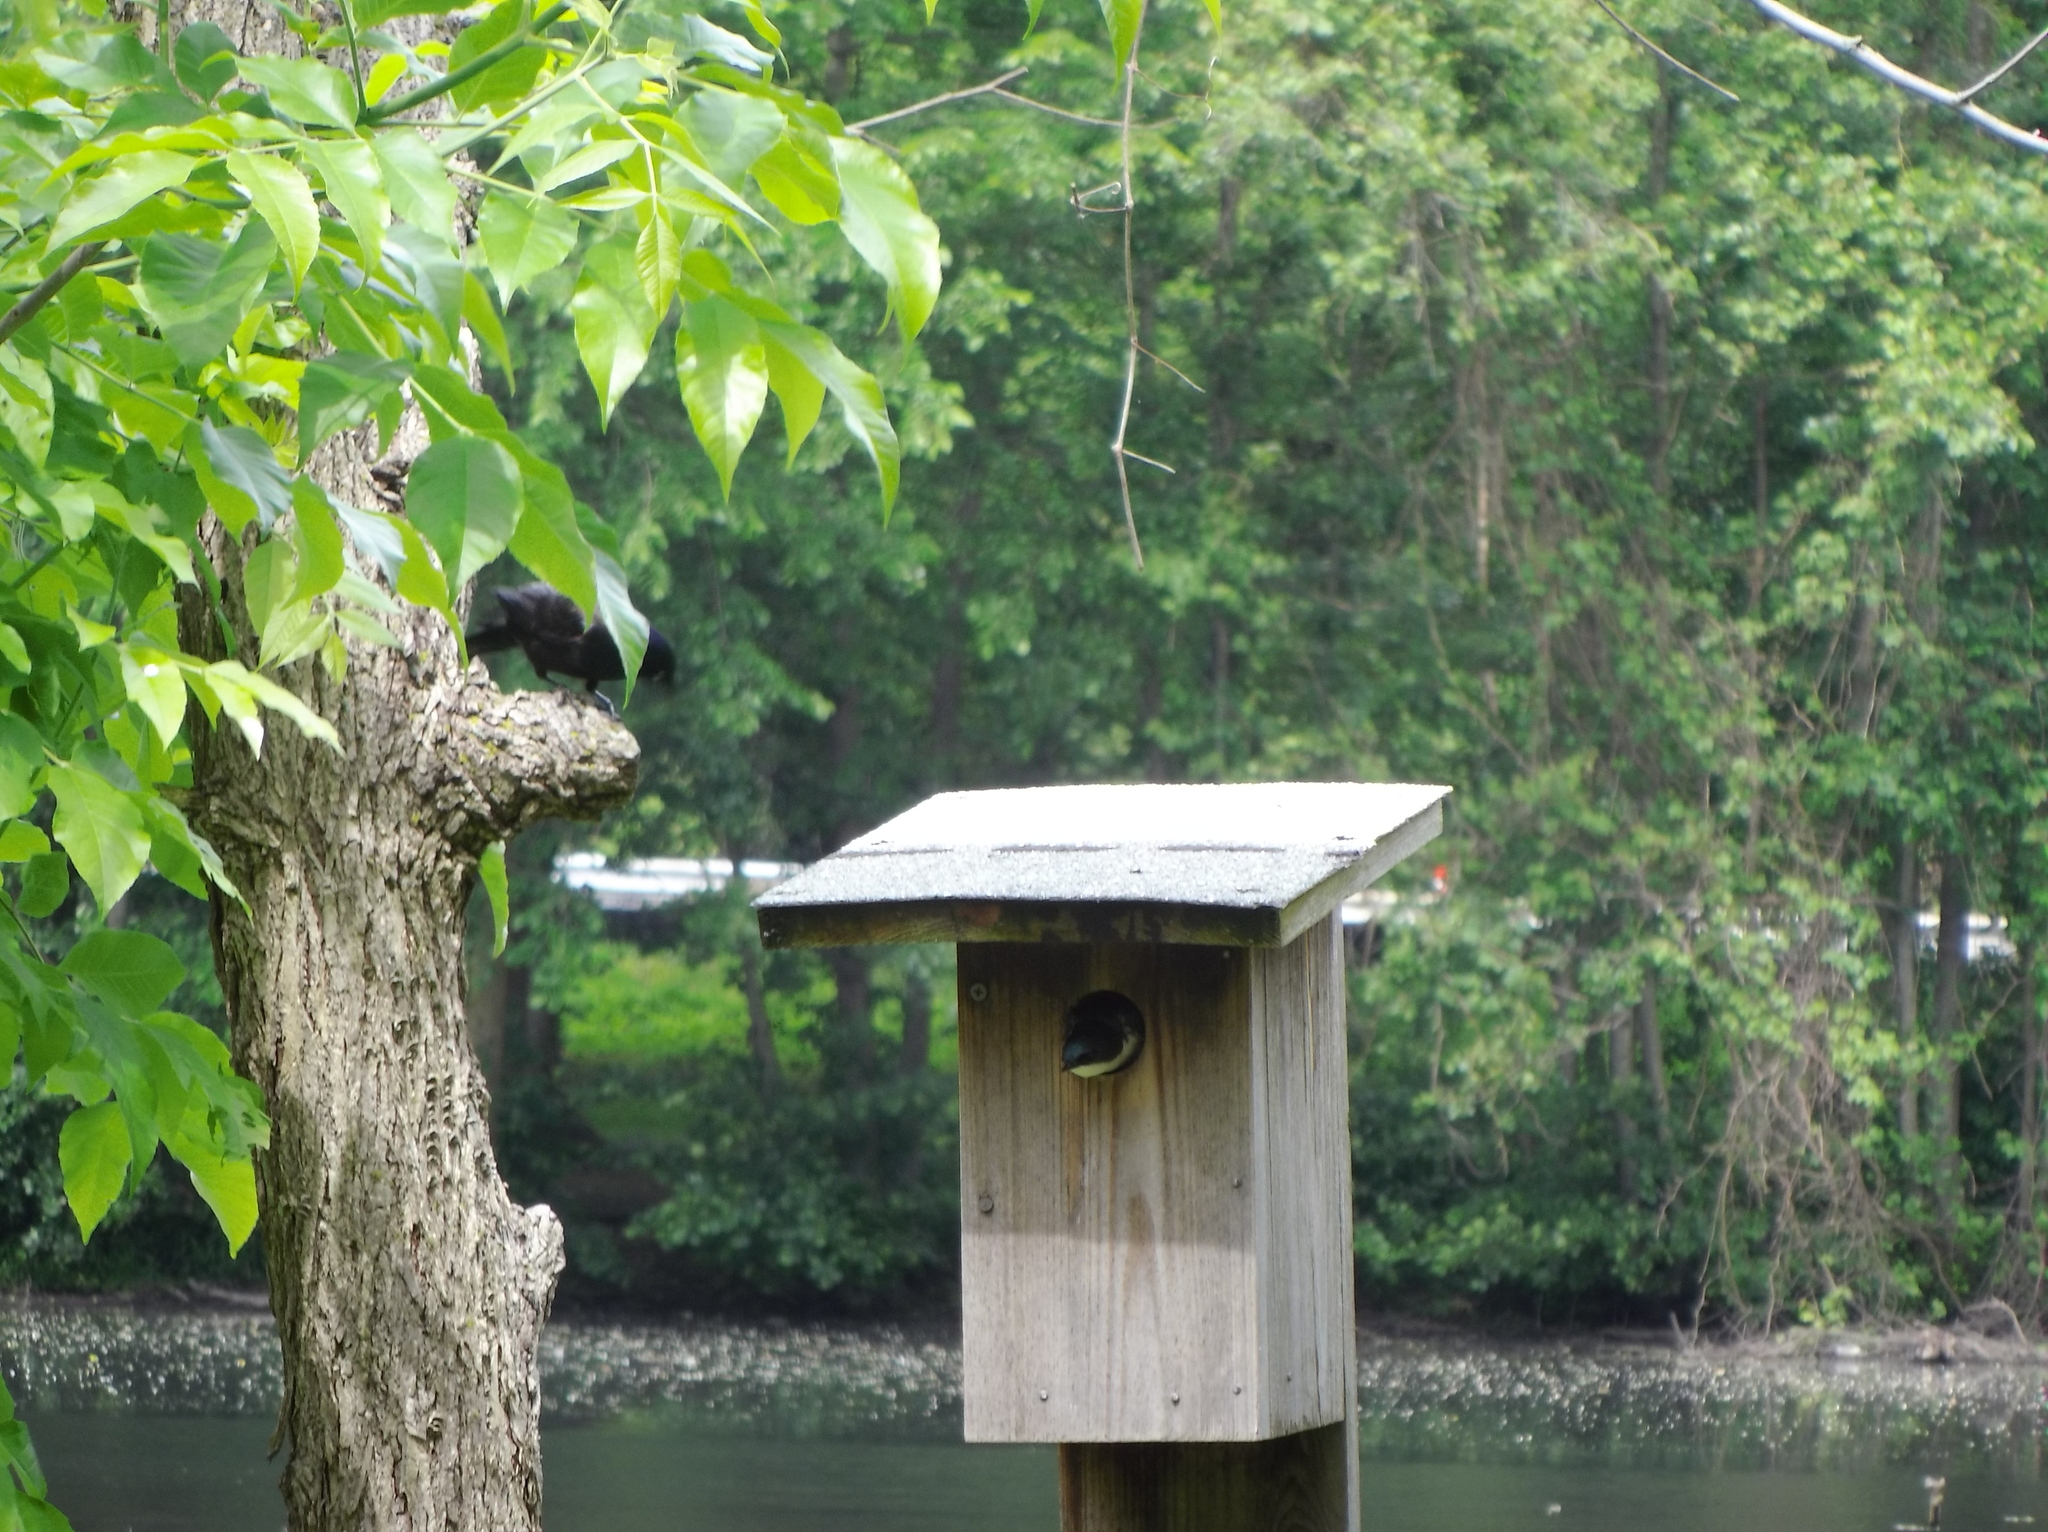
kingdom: Animalia
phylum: Chordata
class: Aves
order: Passeriformes
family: Hirundinidae
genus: Tachycineta
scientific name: Tachycineta bicolor
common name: Tree swallow
